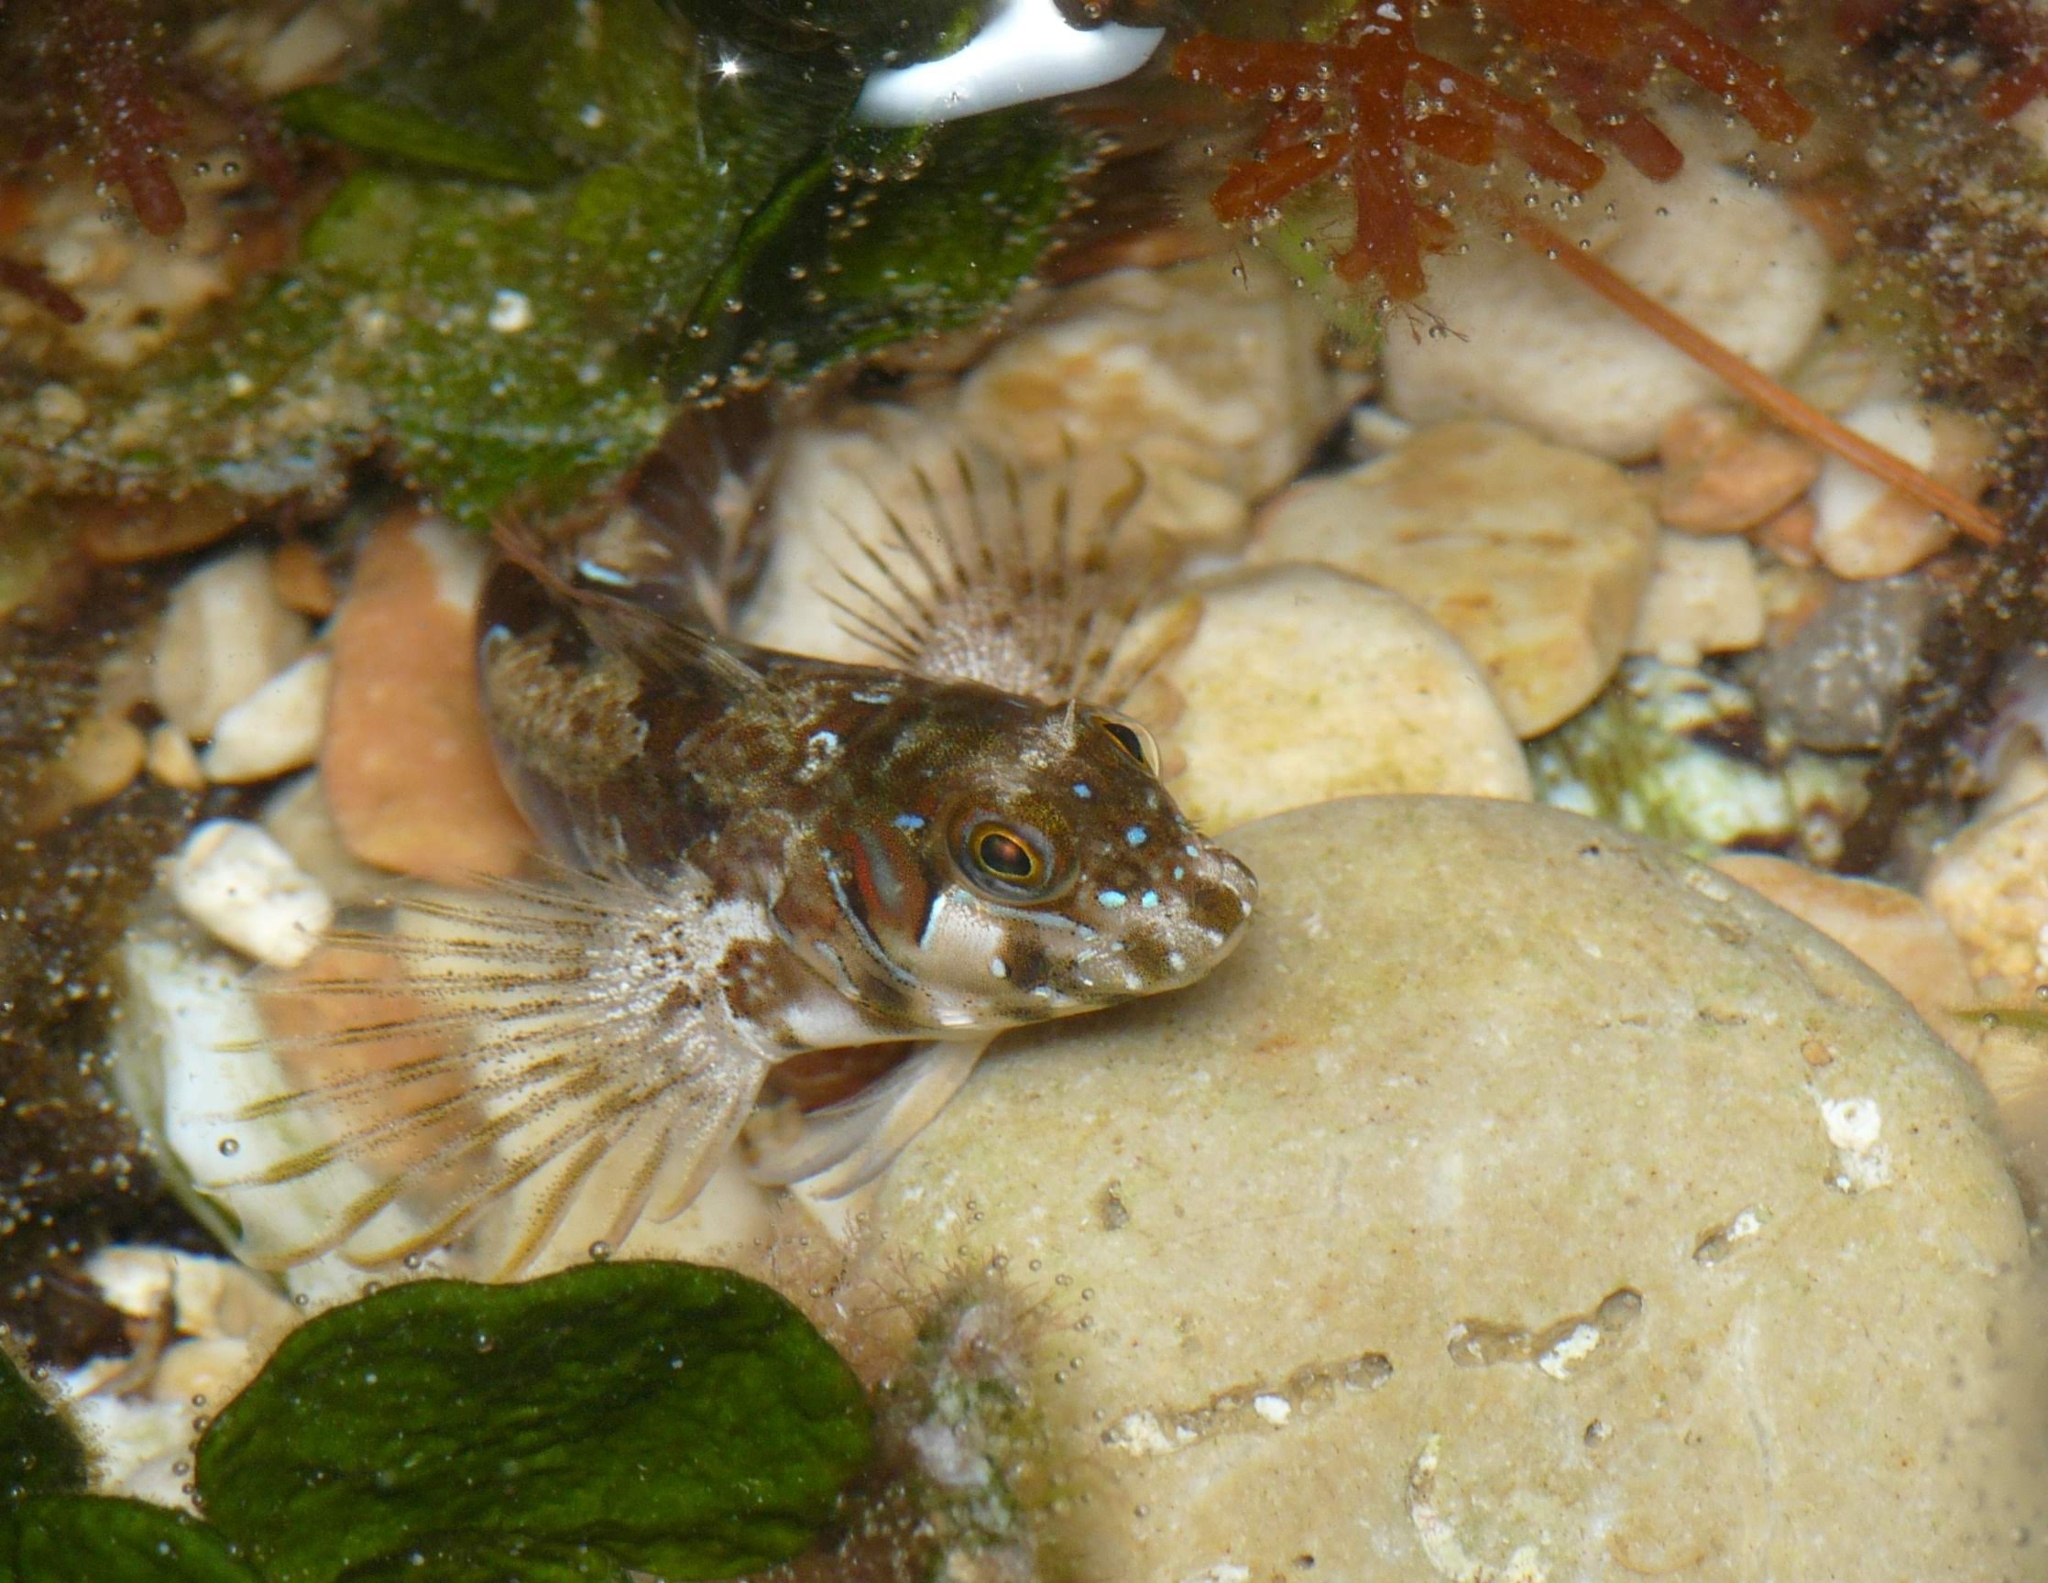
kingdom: Animalia
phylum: Chordata
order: Perciformes
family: Blenniidae
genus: Aidablennius
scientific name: Aidablennius sphynx
